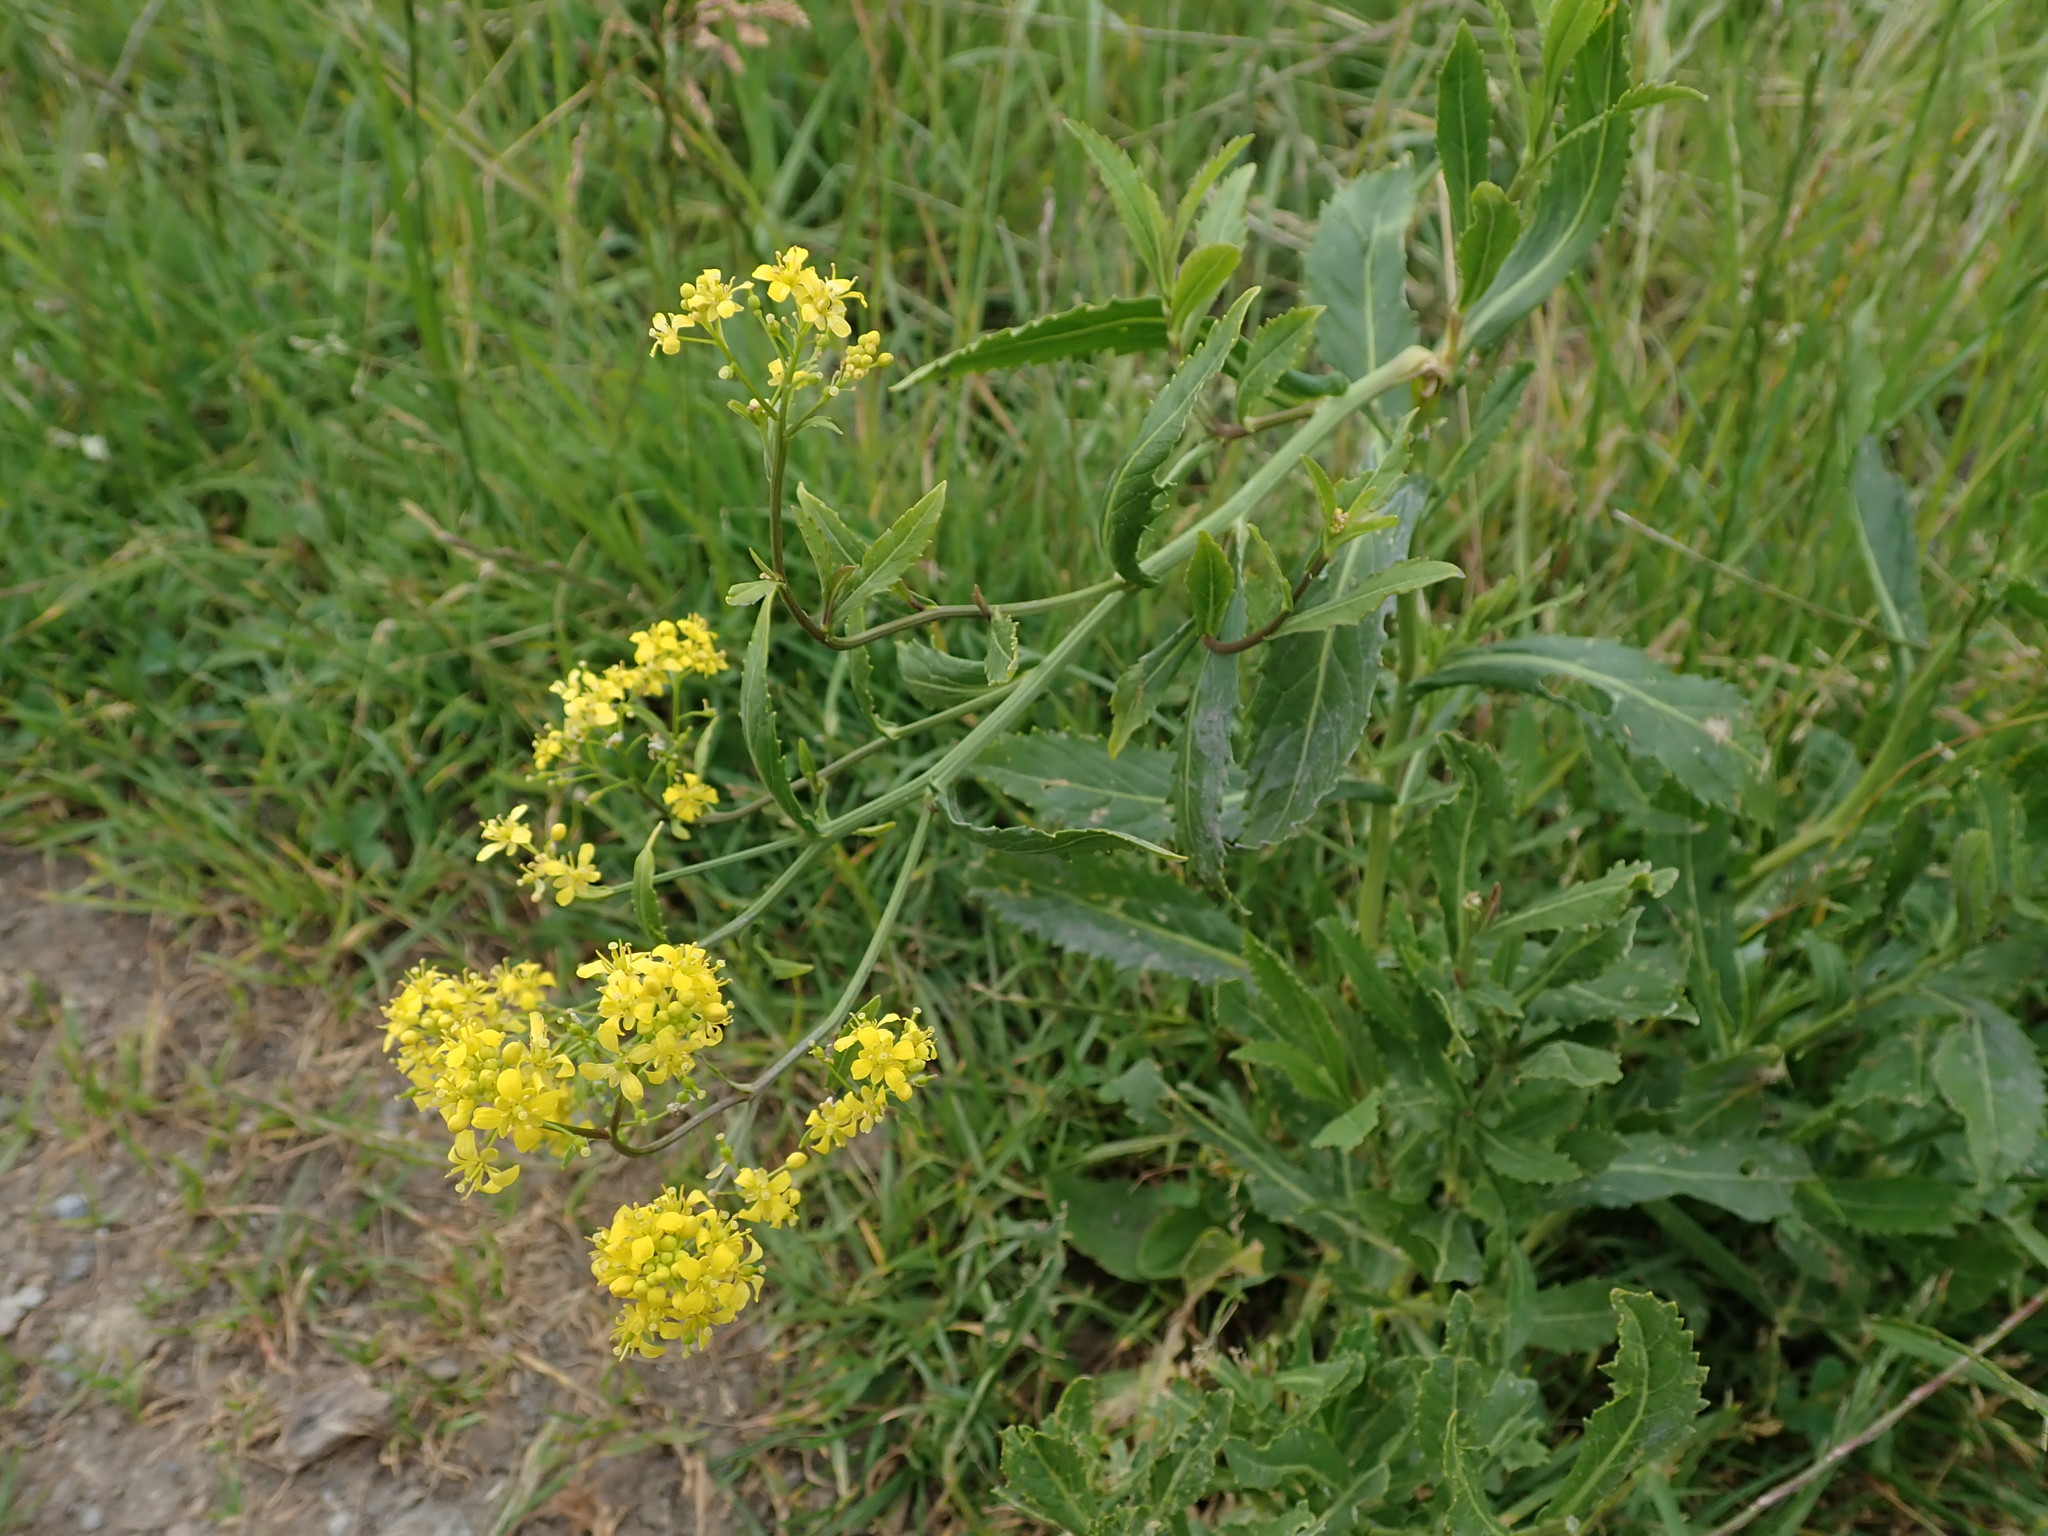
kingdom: Plantae
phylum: Tracheophyta
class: Magnoliopsida
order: Brassicales
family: Brassicaceae
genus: Rorippa
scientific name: Rorippa amphibia
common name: Great yellow-cress
